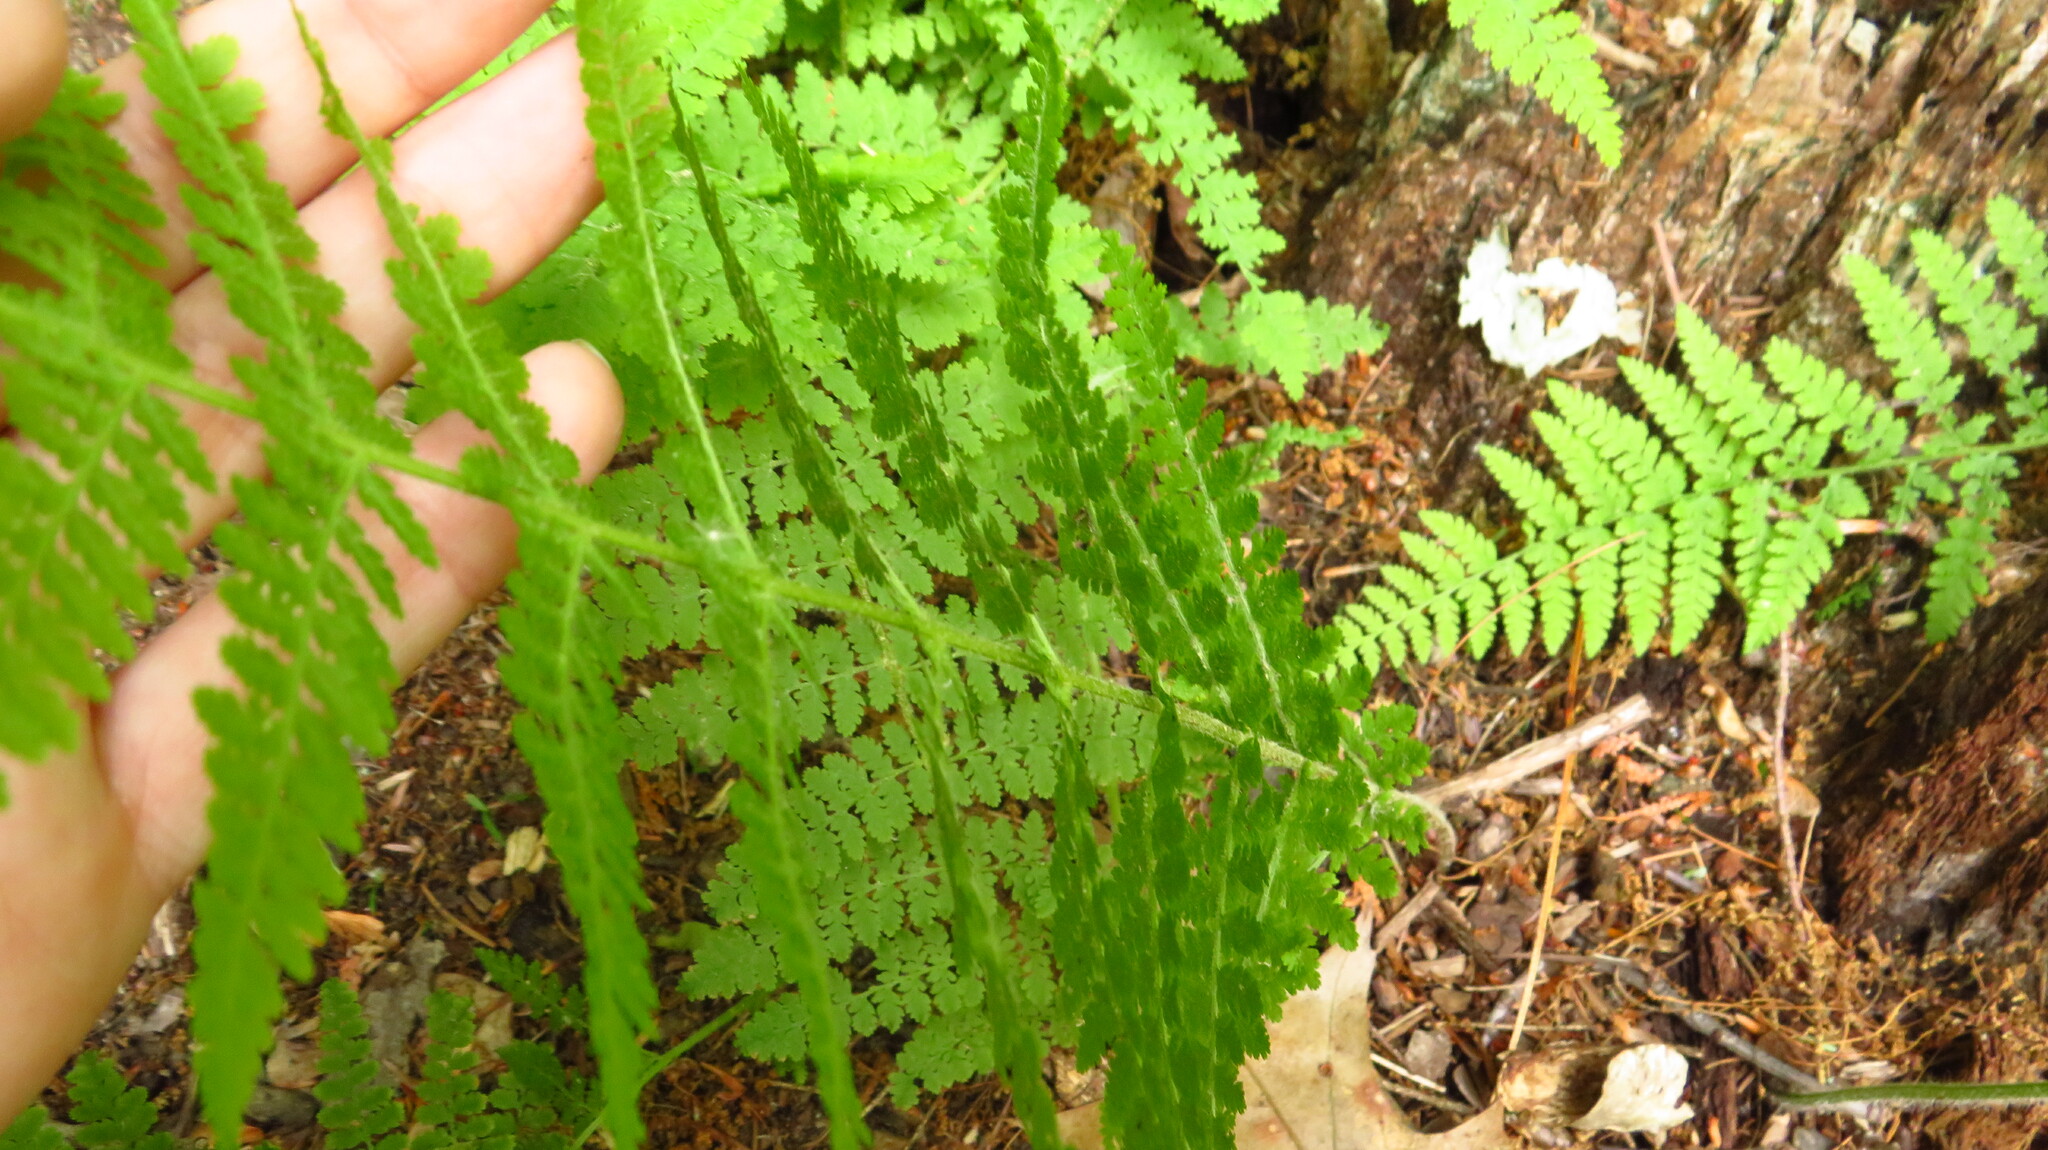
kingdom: Plantae
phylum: Tracheophyta
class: Polypodiopsida
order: Polypodiales
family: Dennstaedtiaceae
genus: Sitobolium
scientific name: Sitobolium punctilobum
